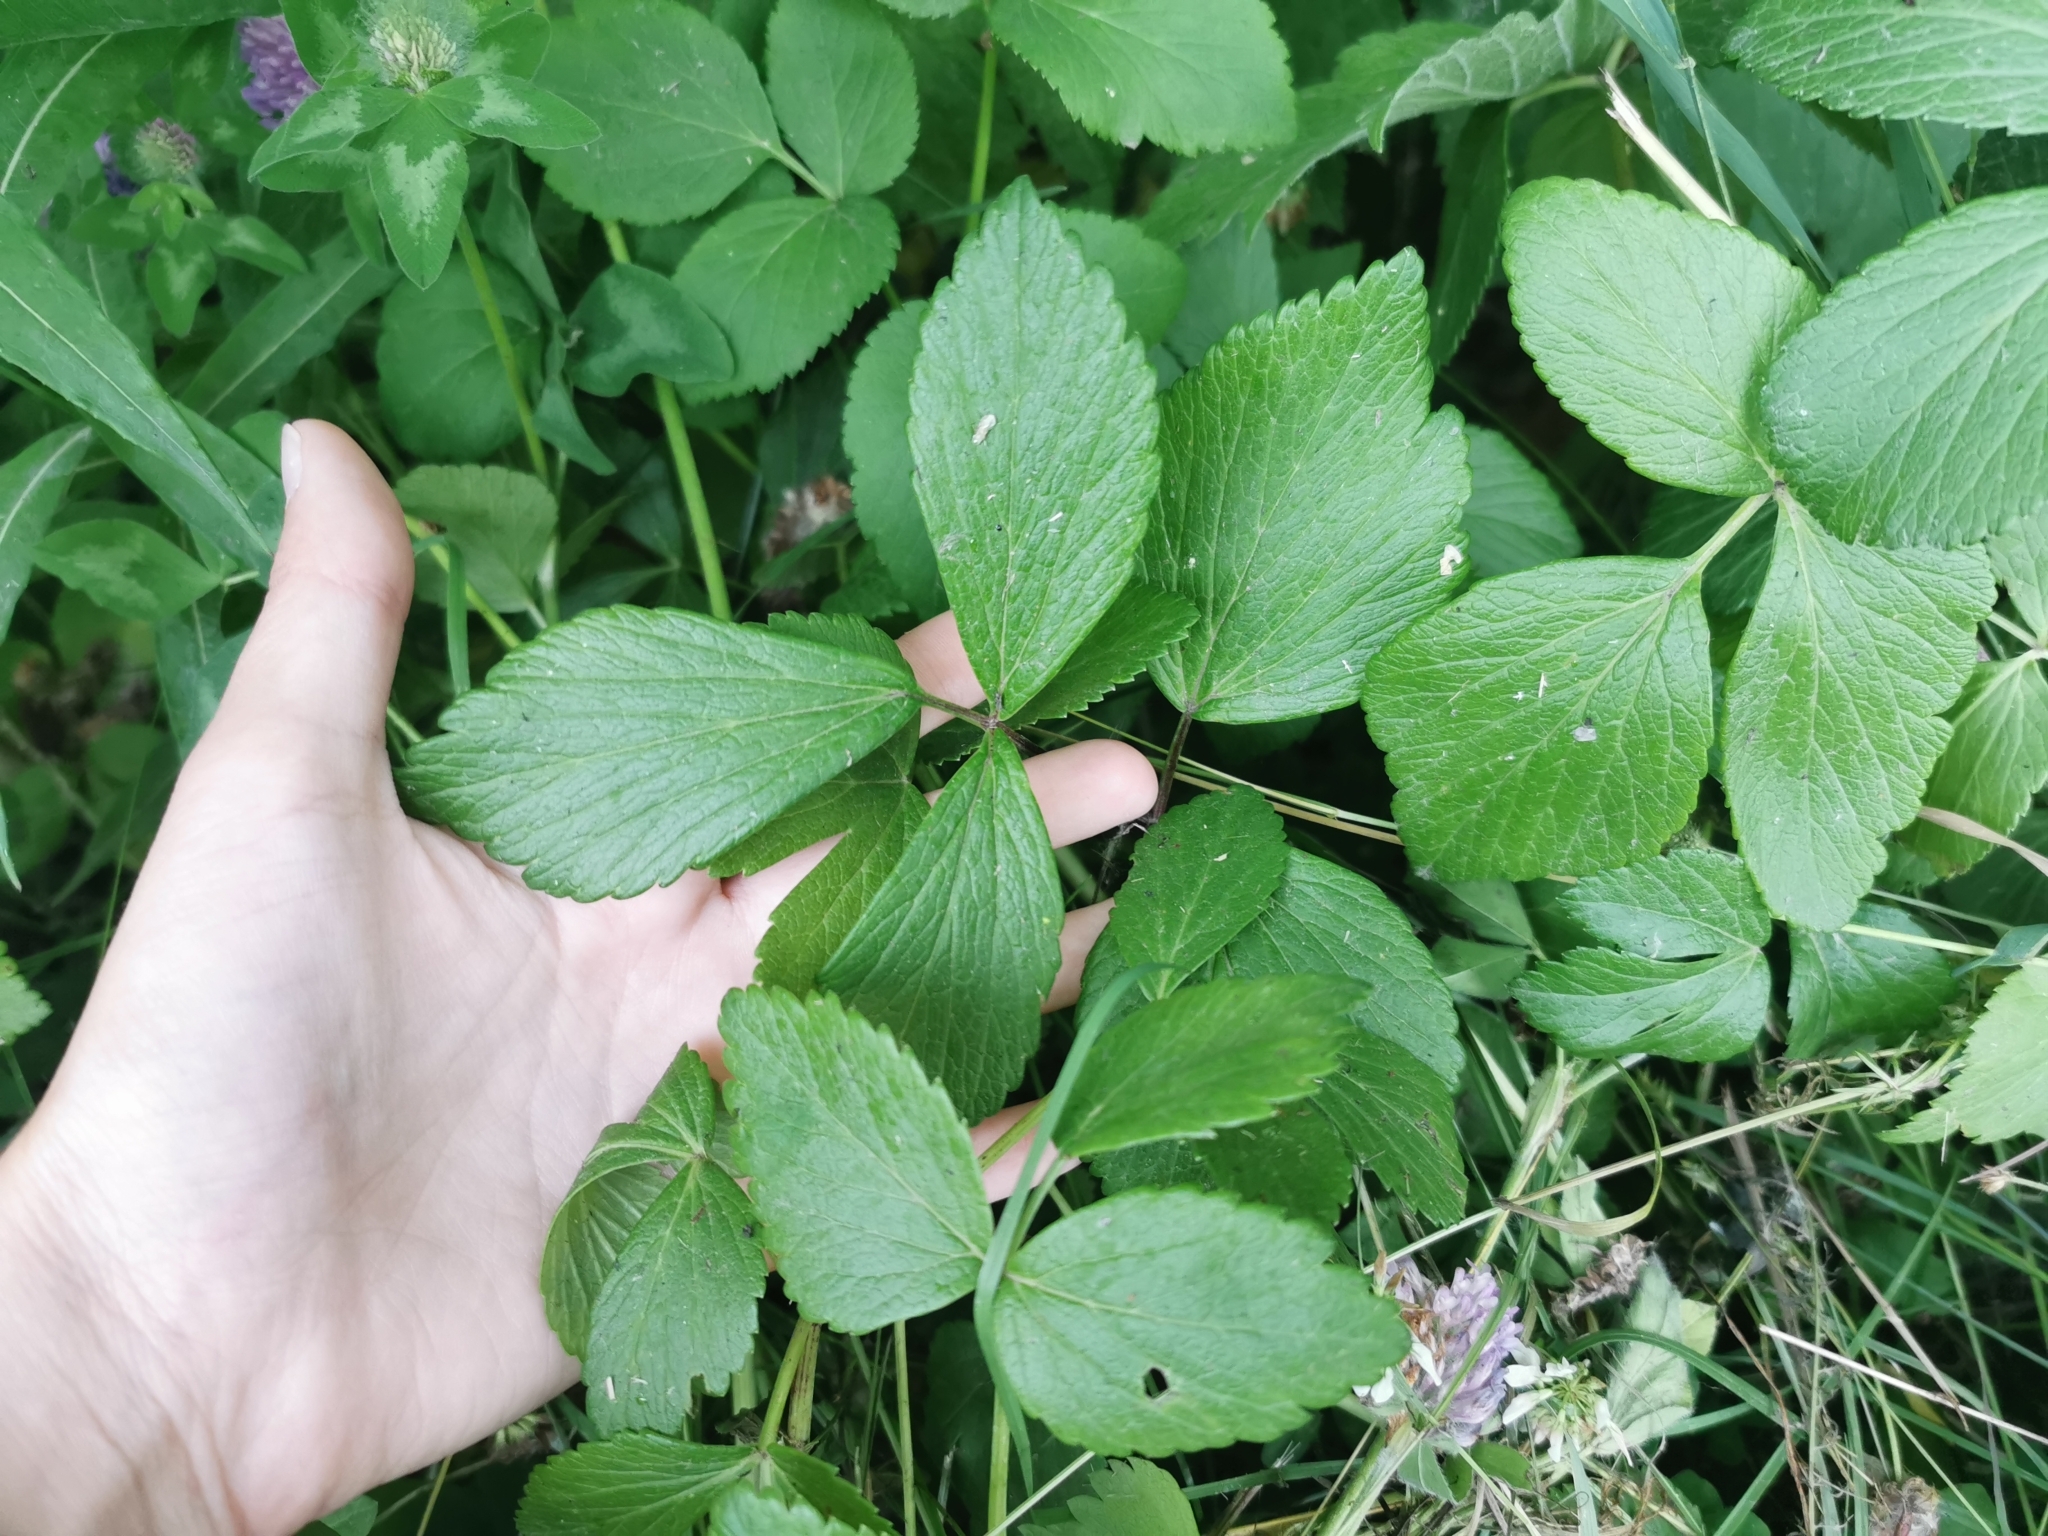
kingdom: Plantae
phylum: Tracheophyta
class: Magnoliopsida
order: Apiales
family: Apiaceae
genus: Ligusticum
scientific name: Ligusticum scothicum
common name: Beach lovage
